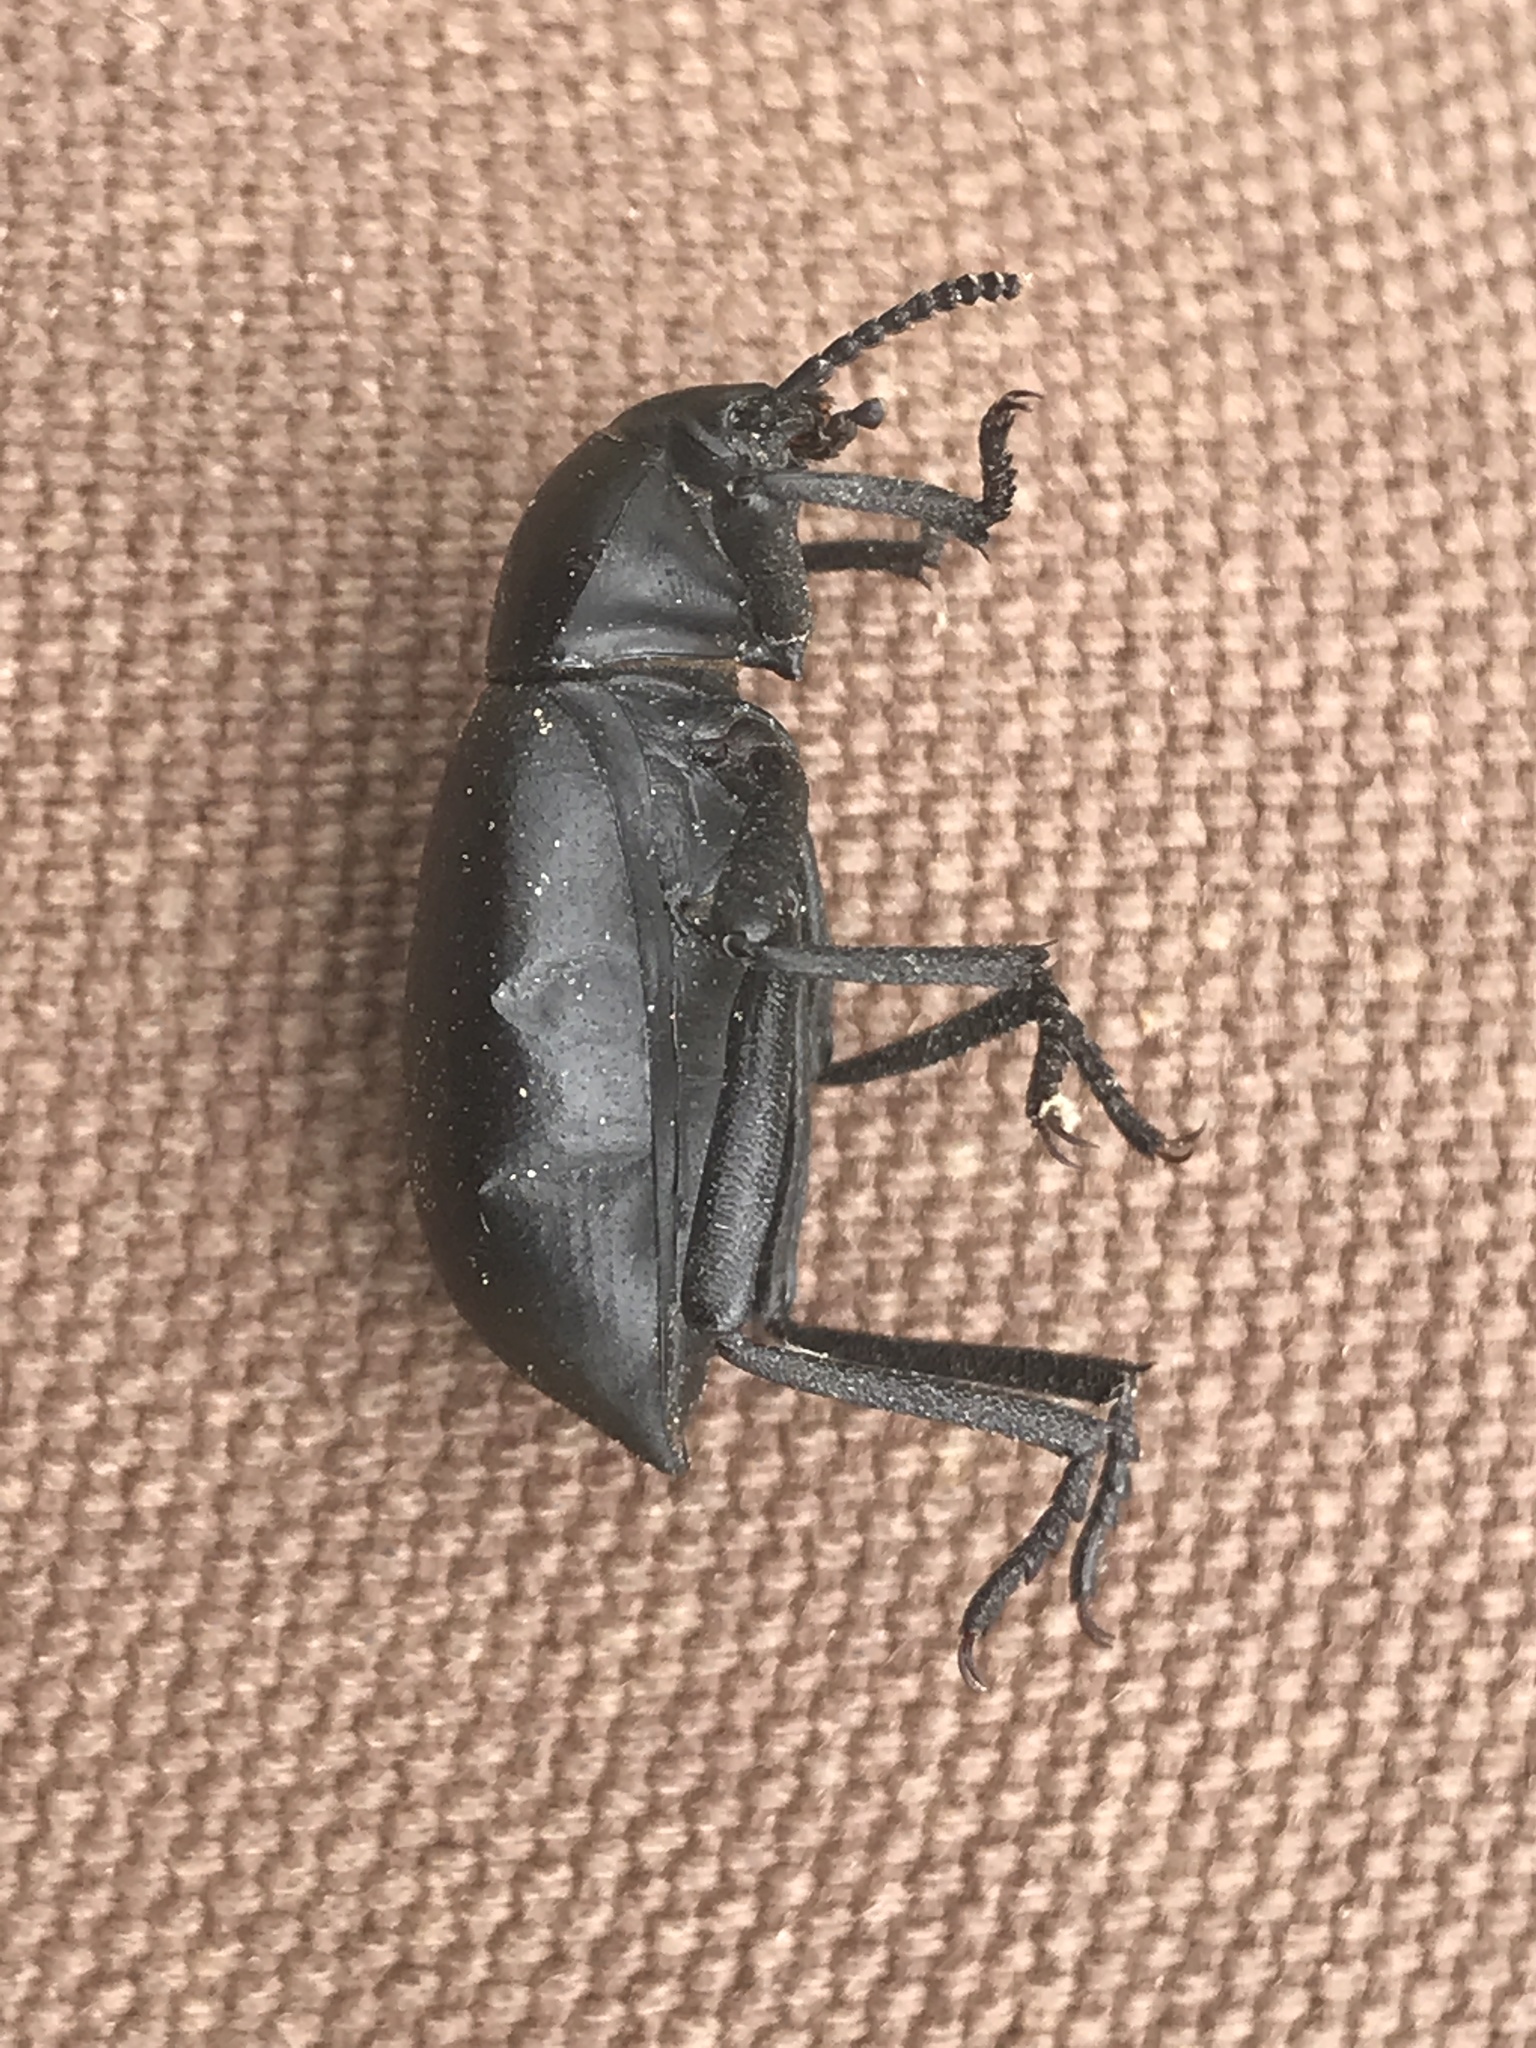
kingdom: Animalia
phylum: Arthropoda
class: Insecta
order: Coleoptera
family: Tenebrionidae
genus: Eleodes
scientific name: Eleodes dentipes
